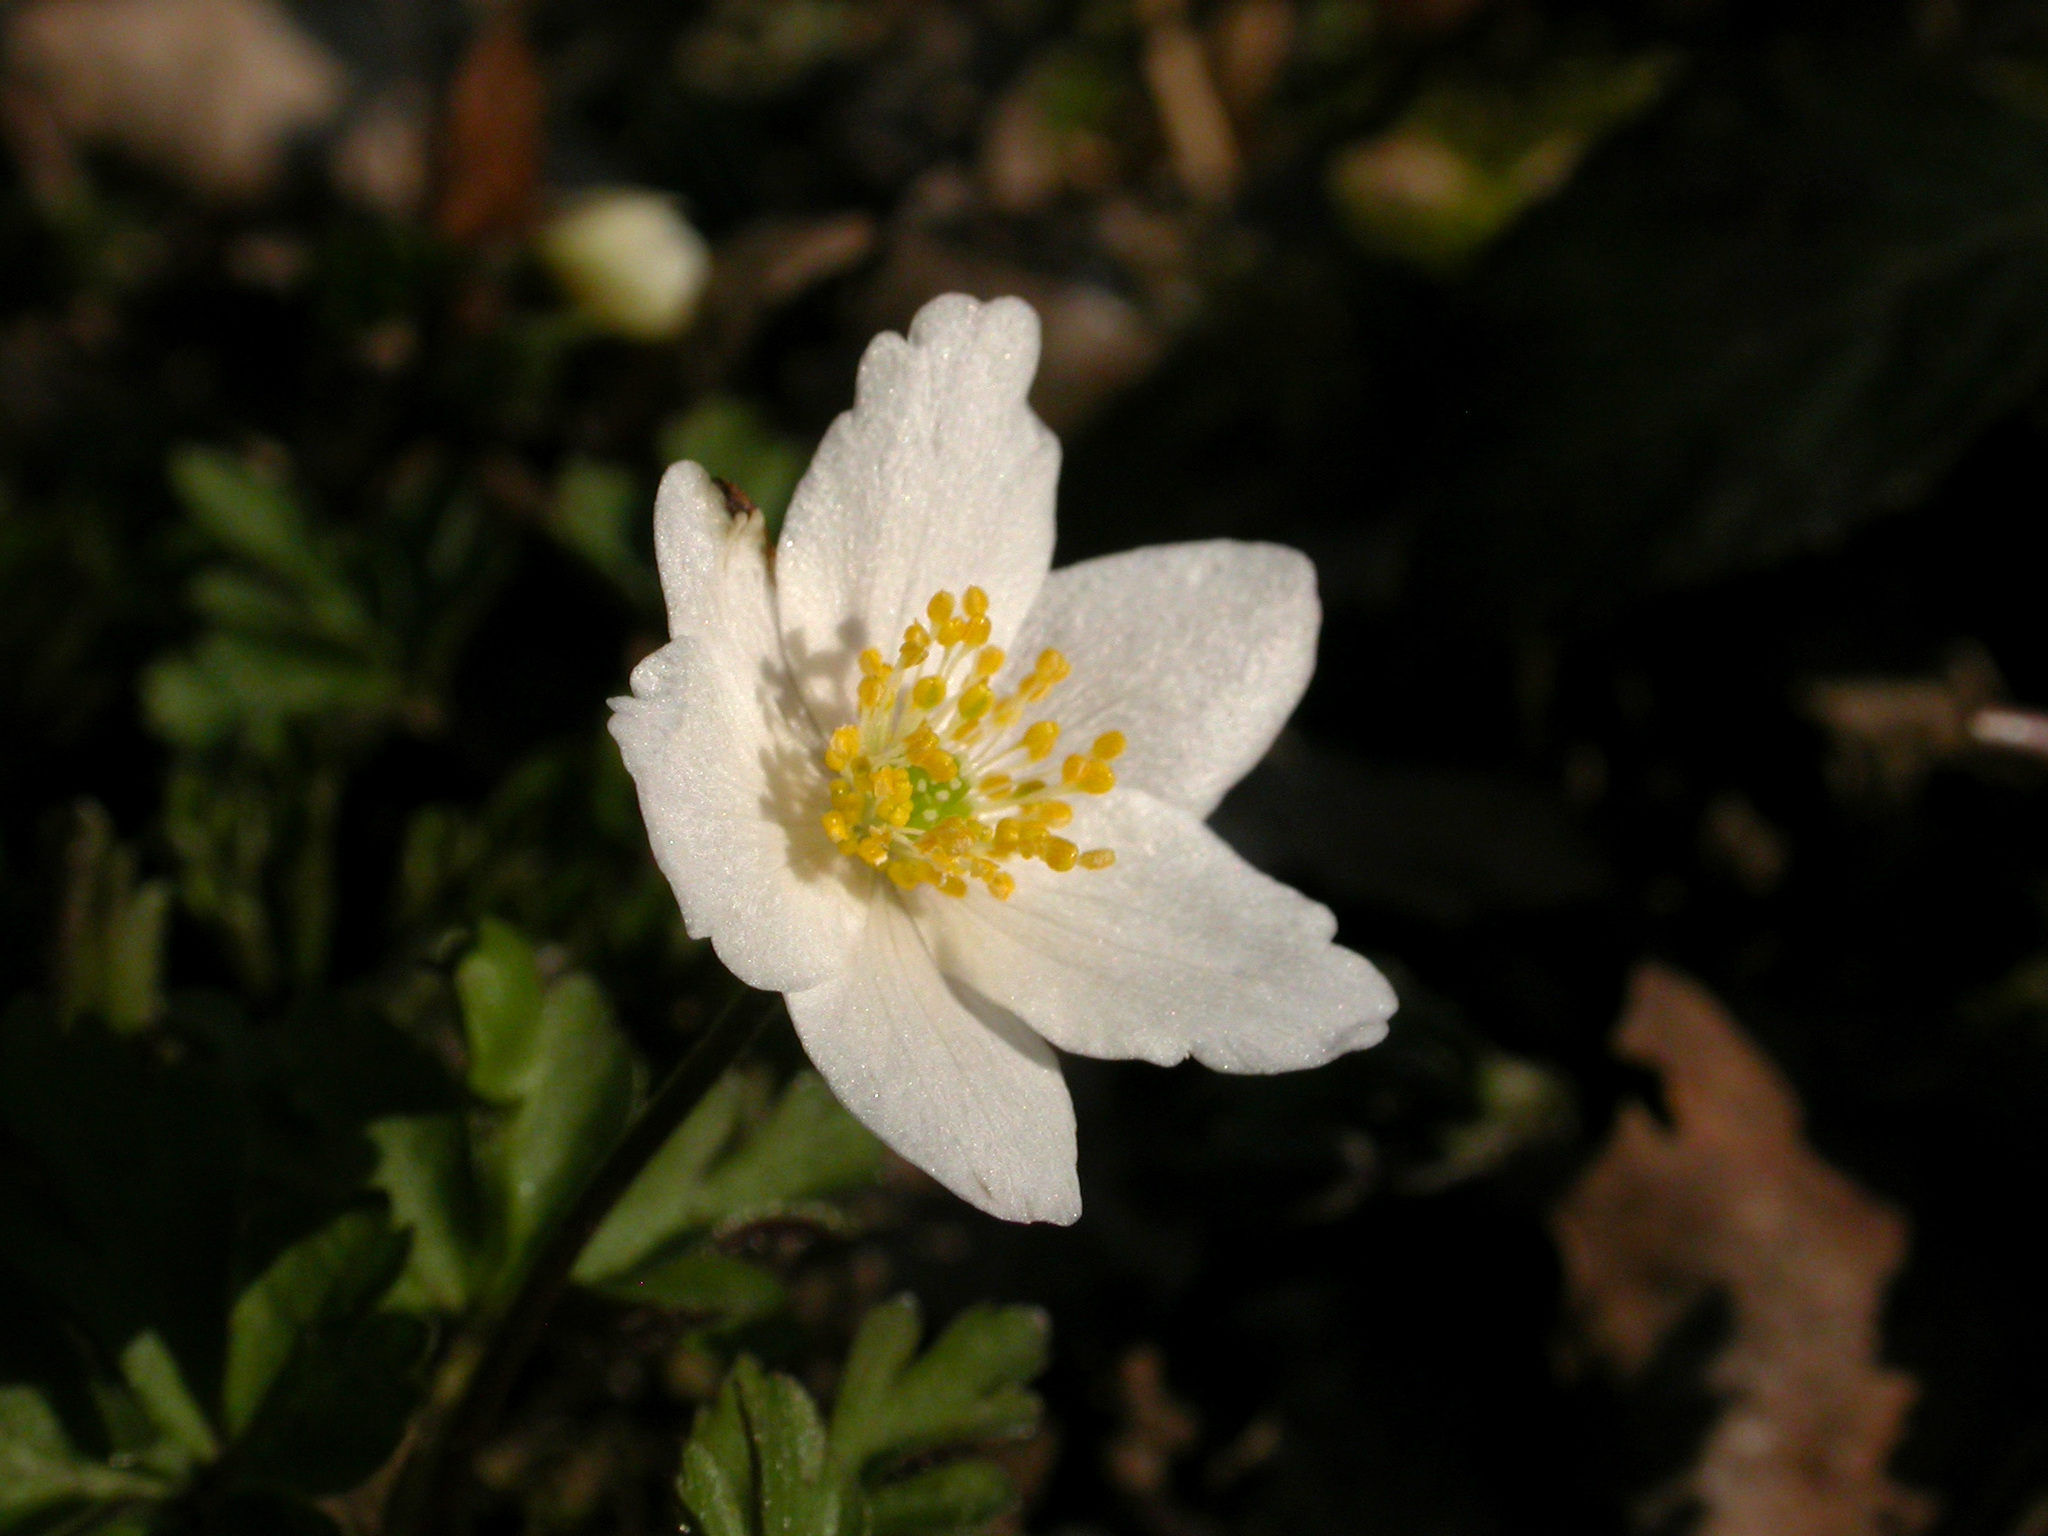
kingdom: Plantae
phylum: Tracheophyta
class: Magnoliopsida
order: Ranunculales
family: Ranunculaceae
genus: Anemone
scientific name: Anemone nemorosa
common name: Wood anemone
